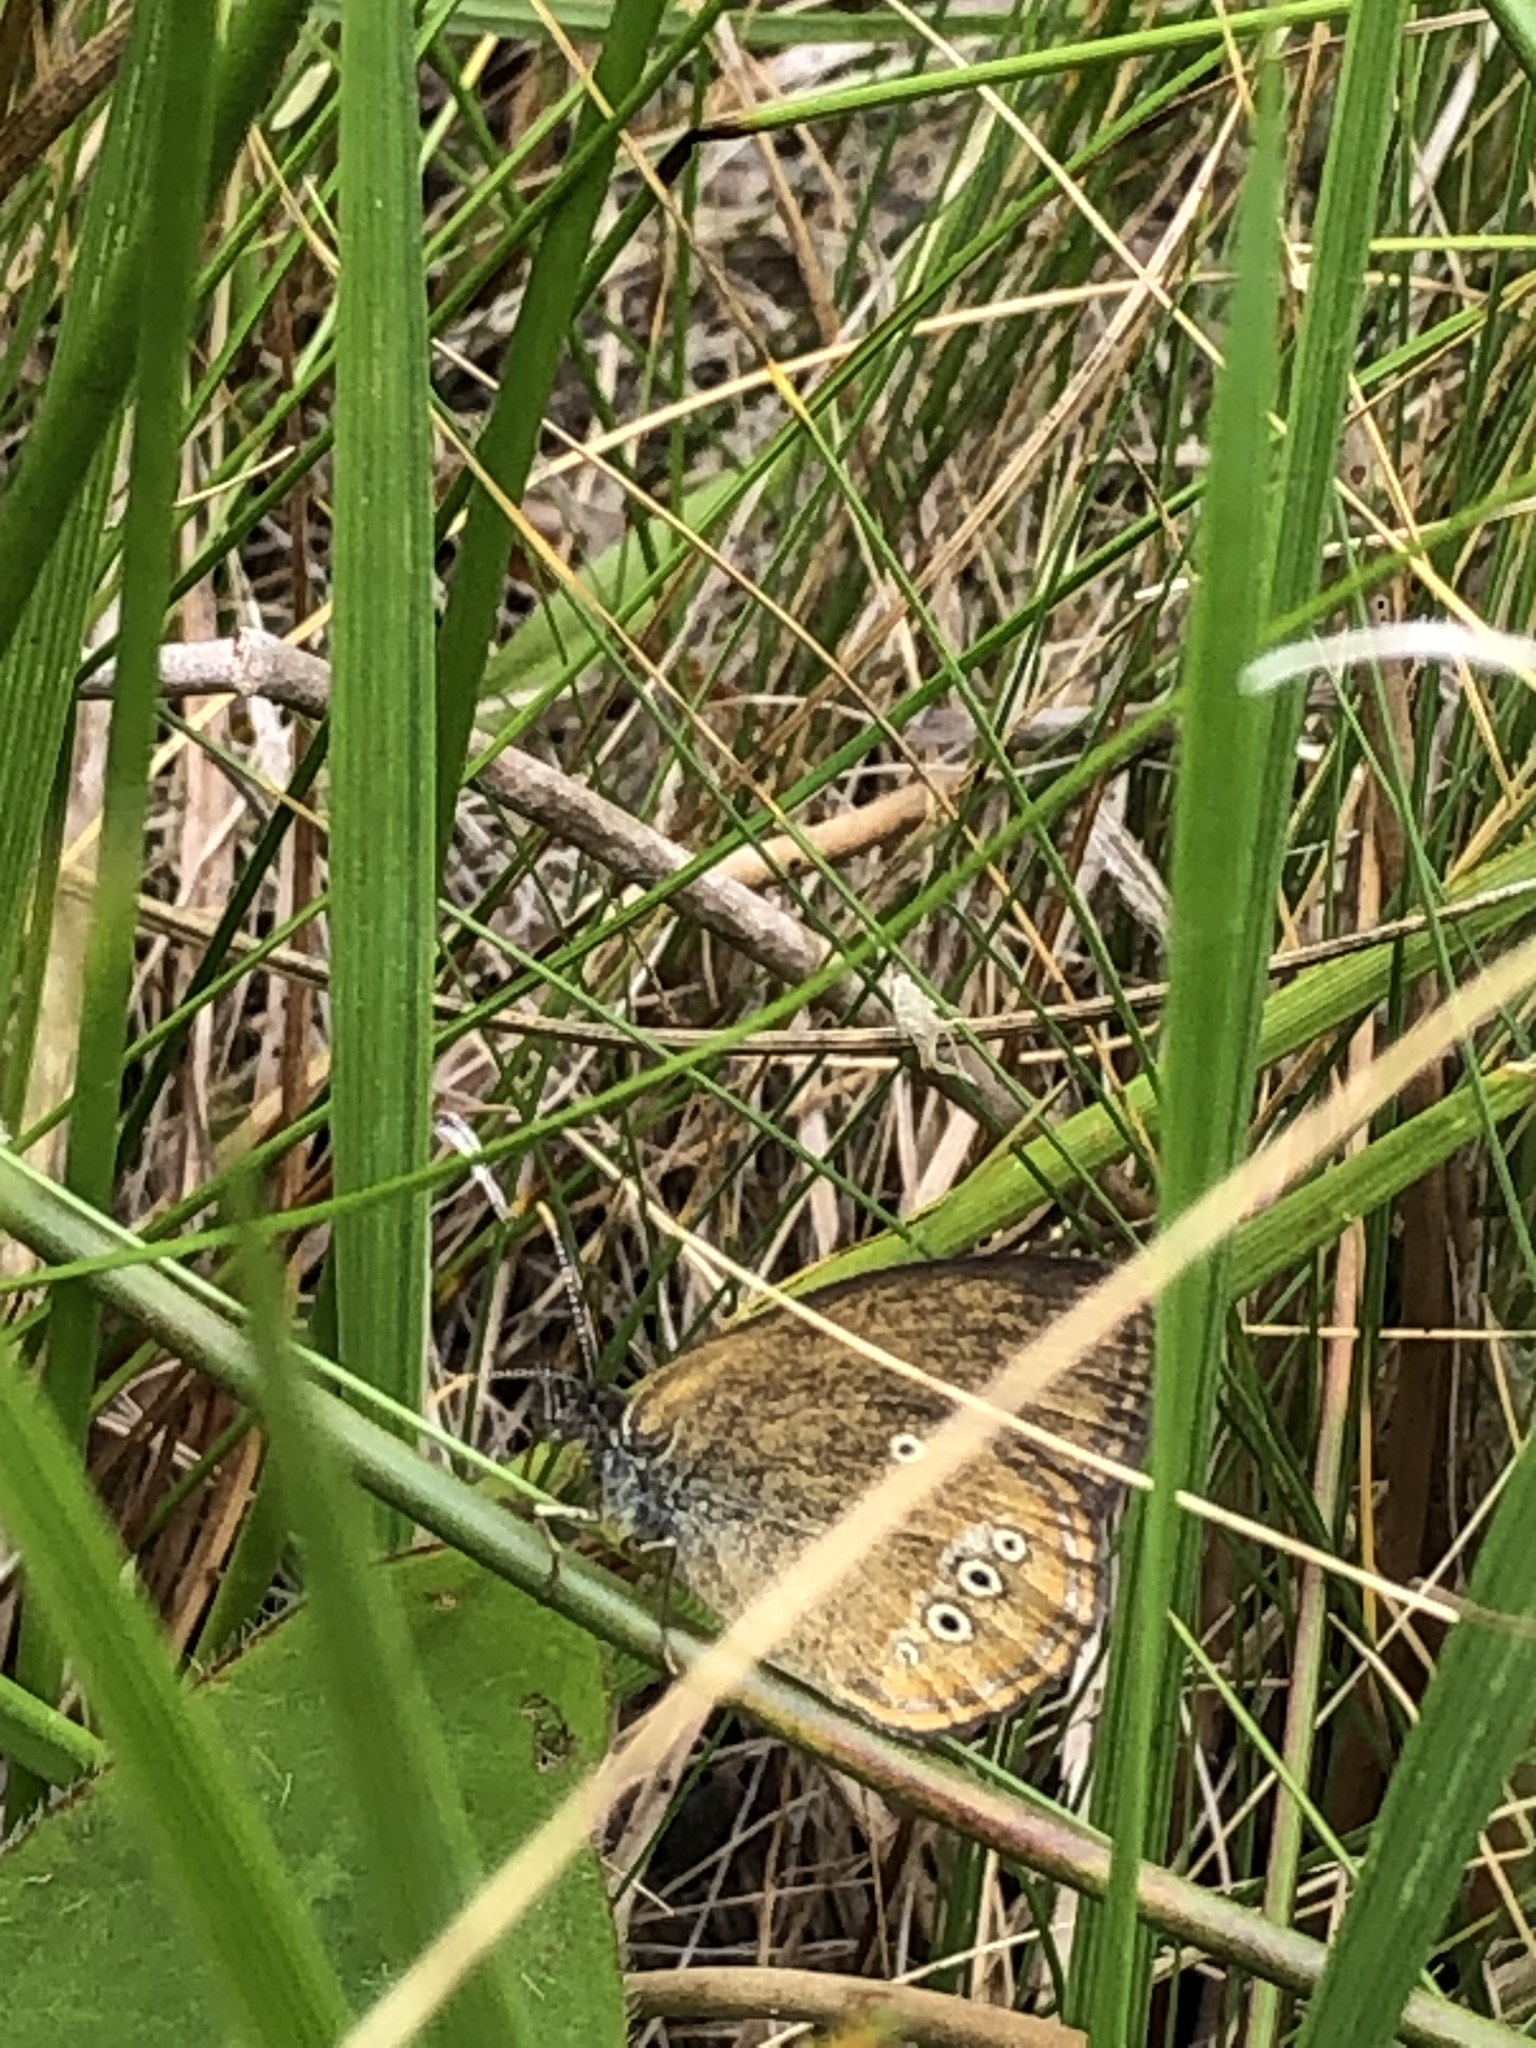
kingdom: Animalia
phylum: Arthropoda
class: Insecta
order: Lepidoptera
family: Nymphalidae
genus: Coenonympha
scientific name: Coenonympha oedippus
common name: False ringlet
